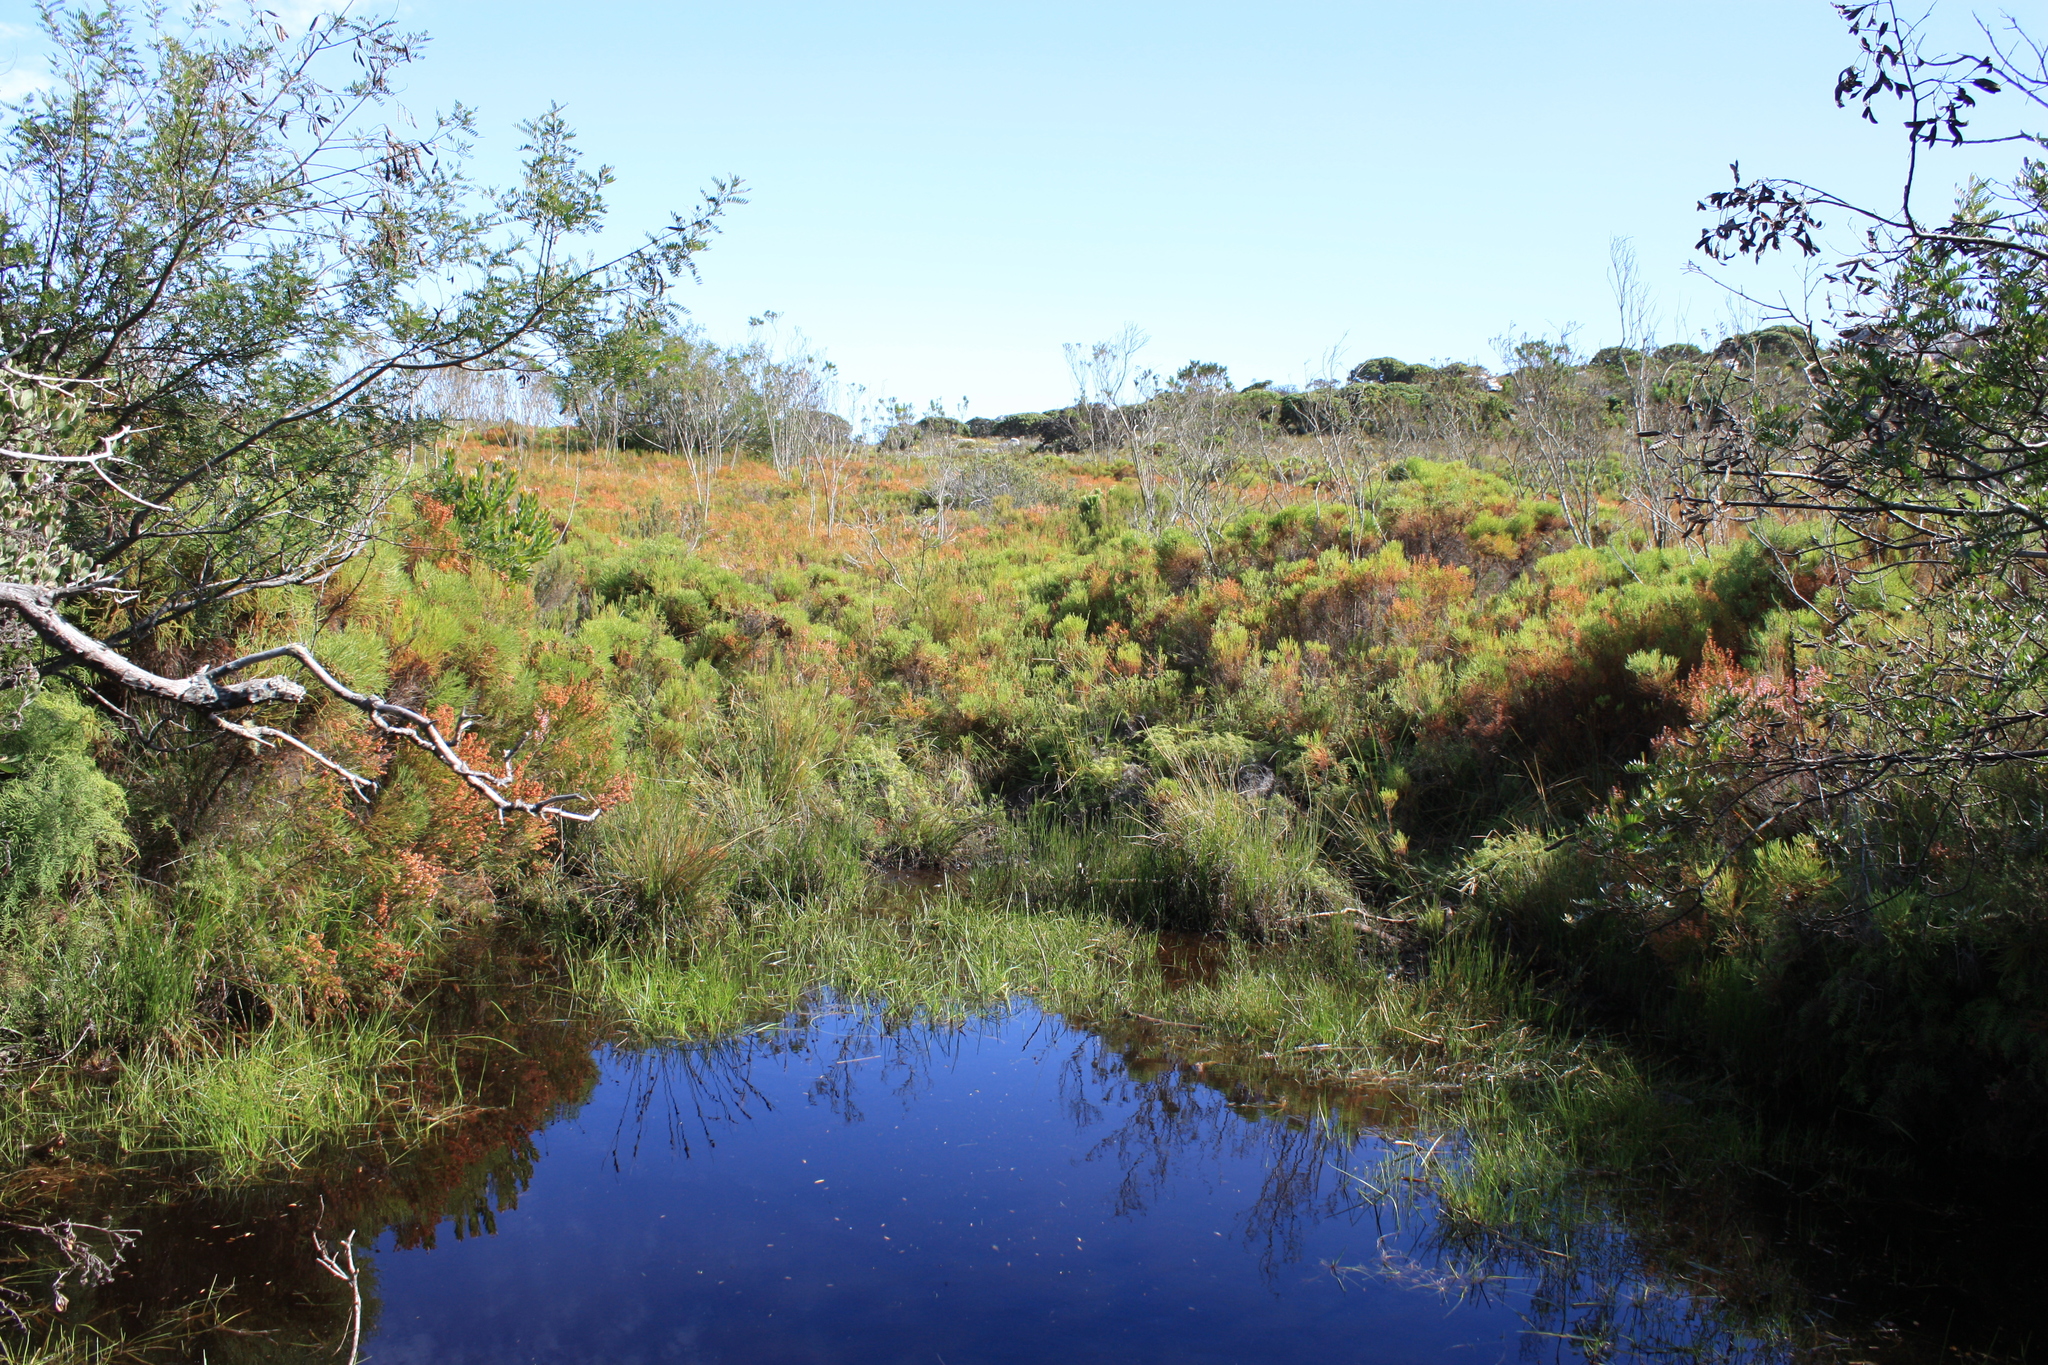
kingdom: Plantae
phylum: Tracheophyta
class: Liliopsida
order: Poales
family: Cyperaceae
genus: Isolepis
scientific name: Isolepis prolifera
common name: Proliferating bulrush
